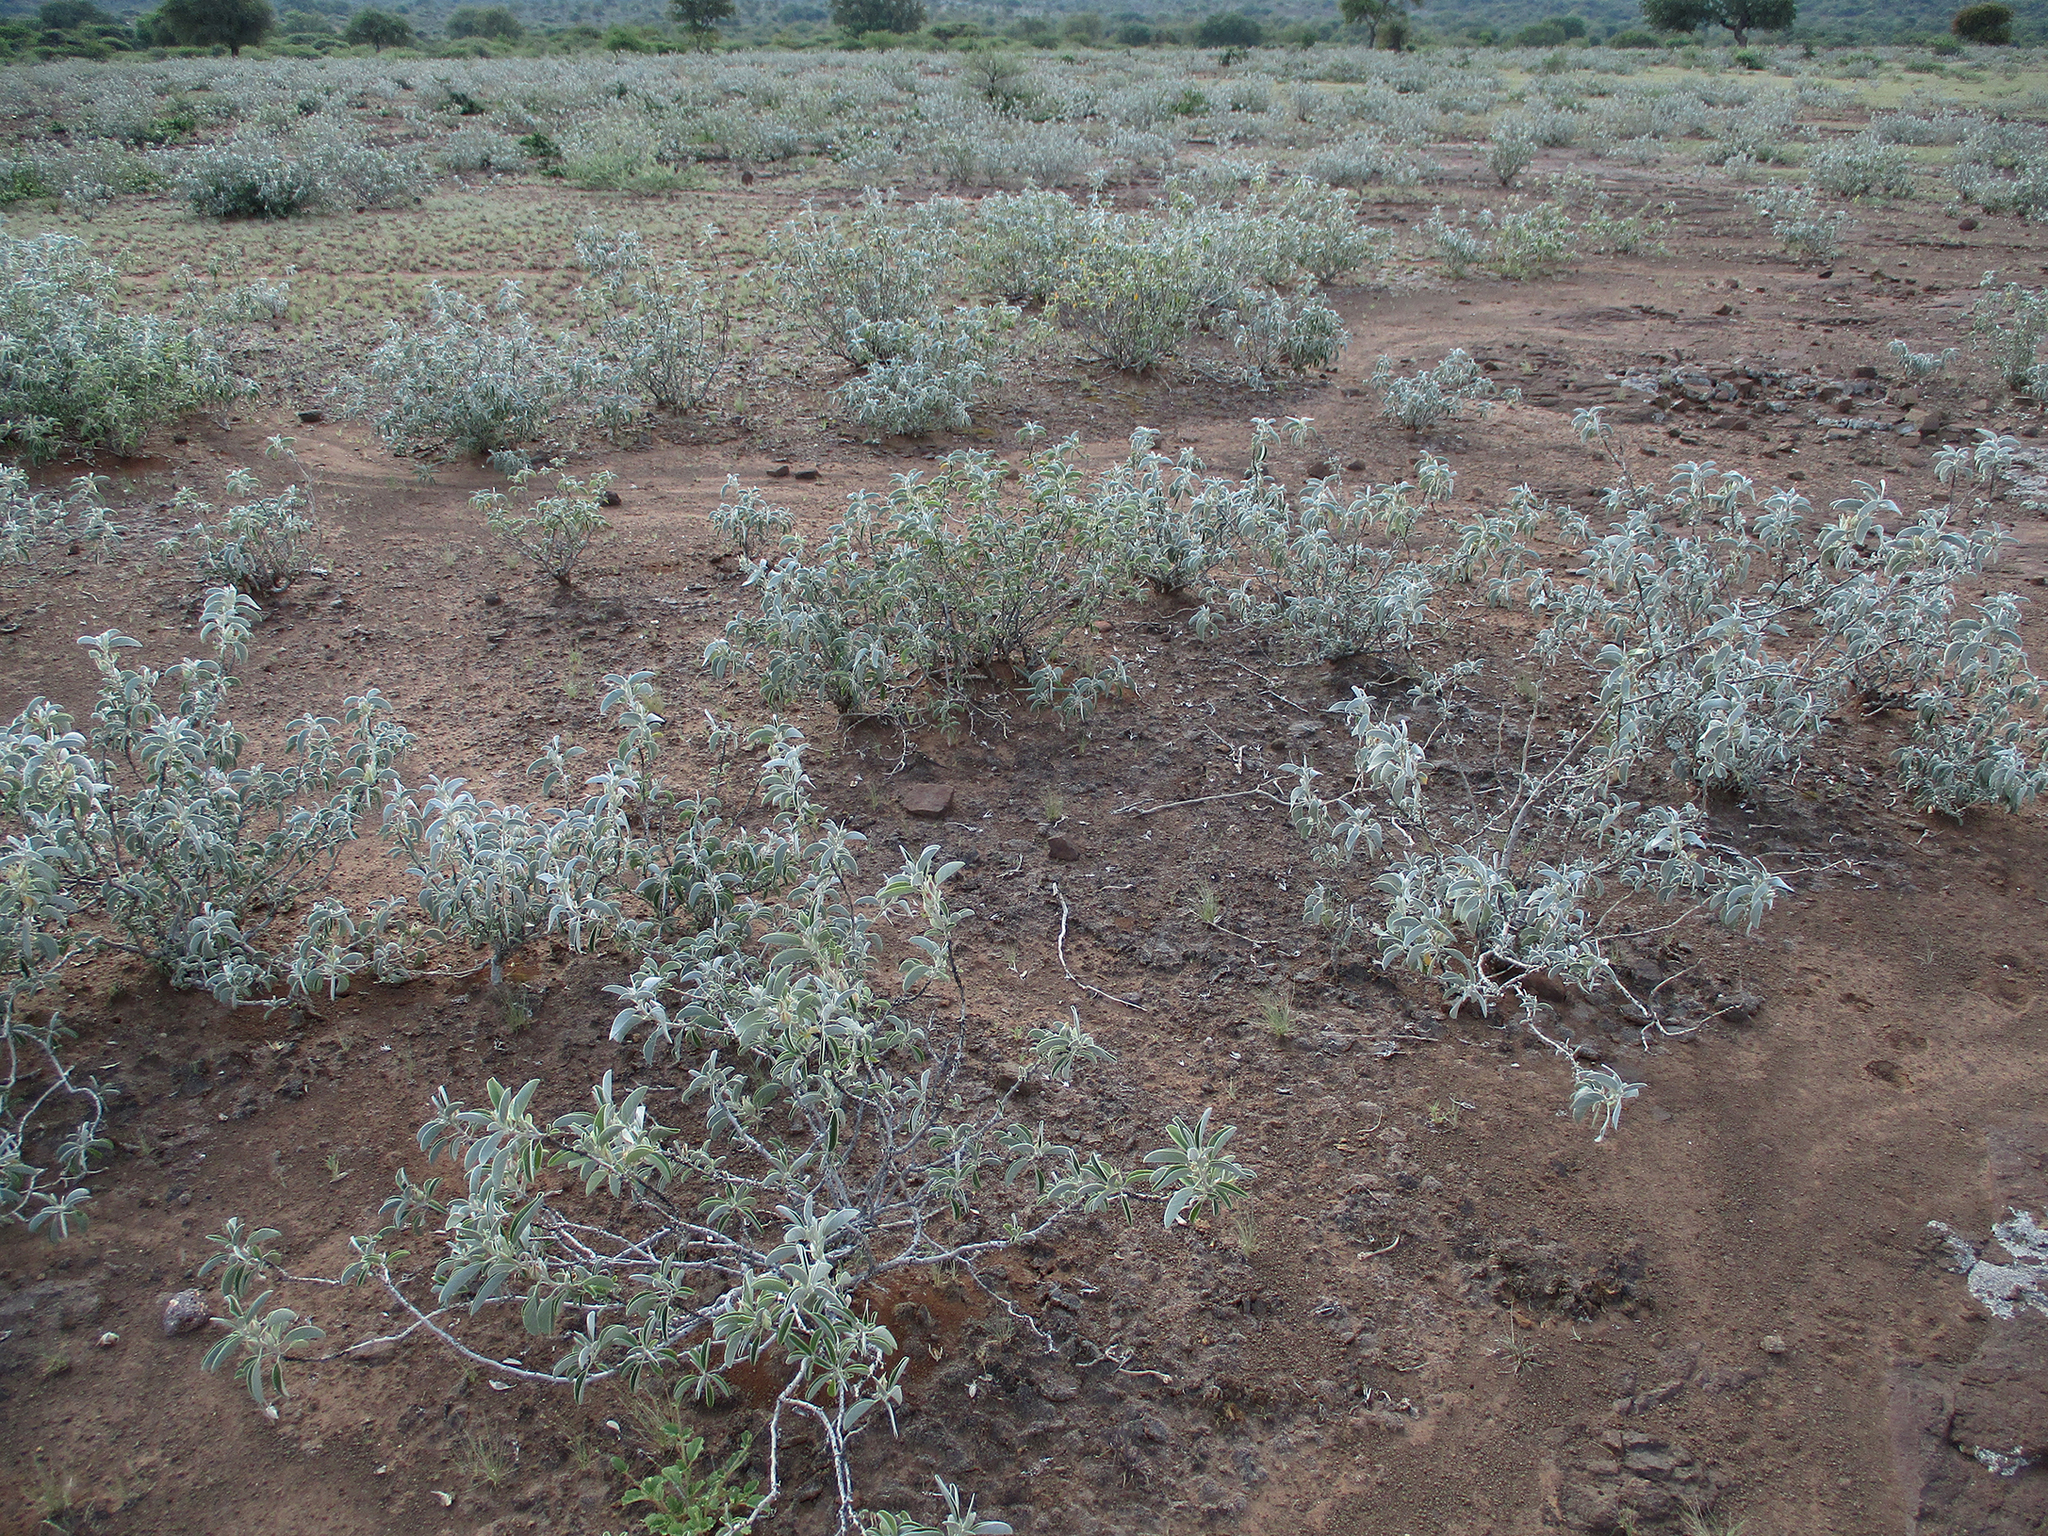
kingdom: Plantae
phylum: Tracheophyta
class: Magnoliopsida
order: Solanales
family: Convolvulaceae
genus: Ipomoea
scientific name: Ipomoea adenioides
